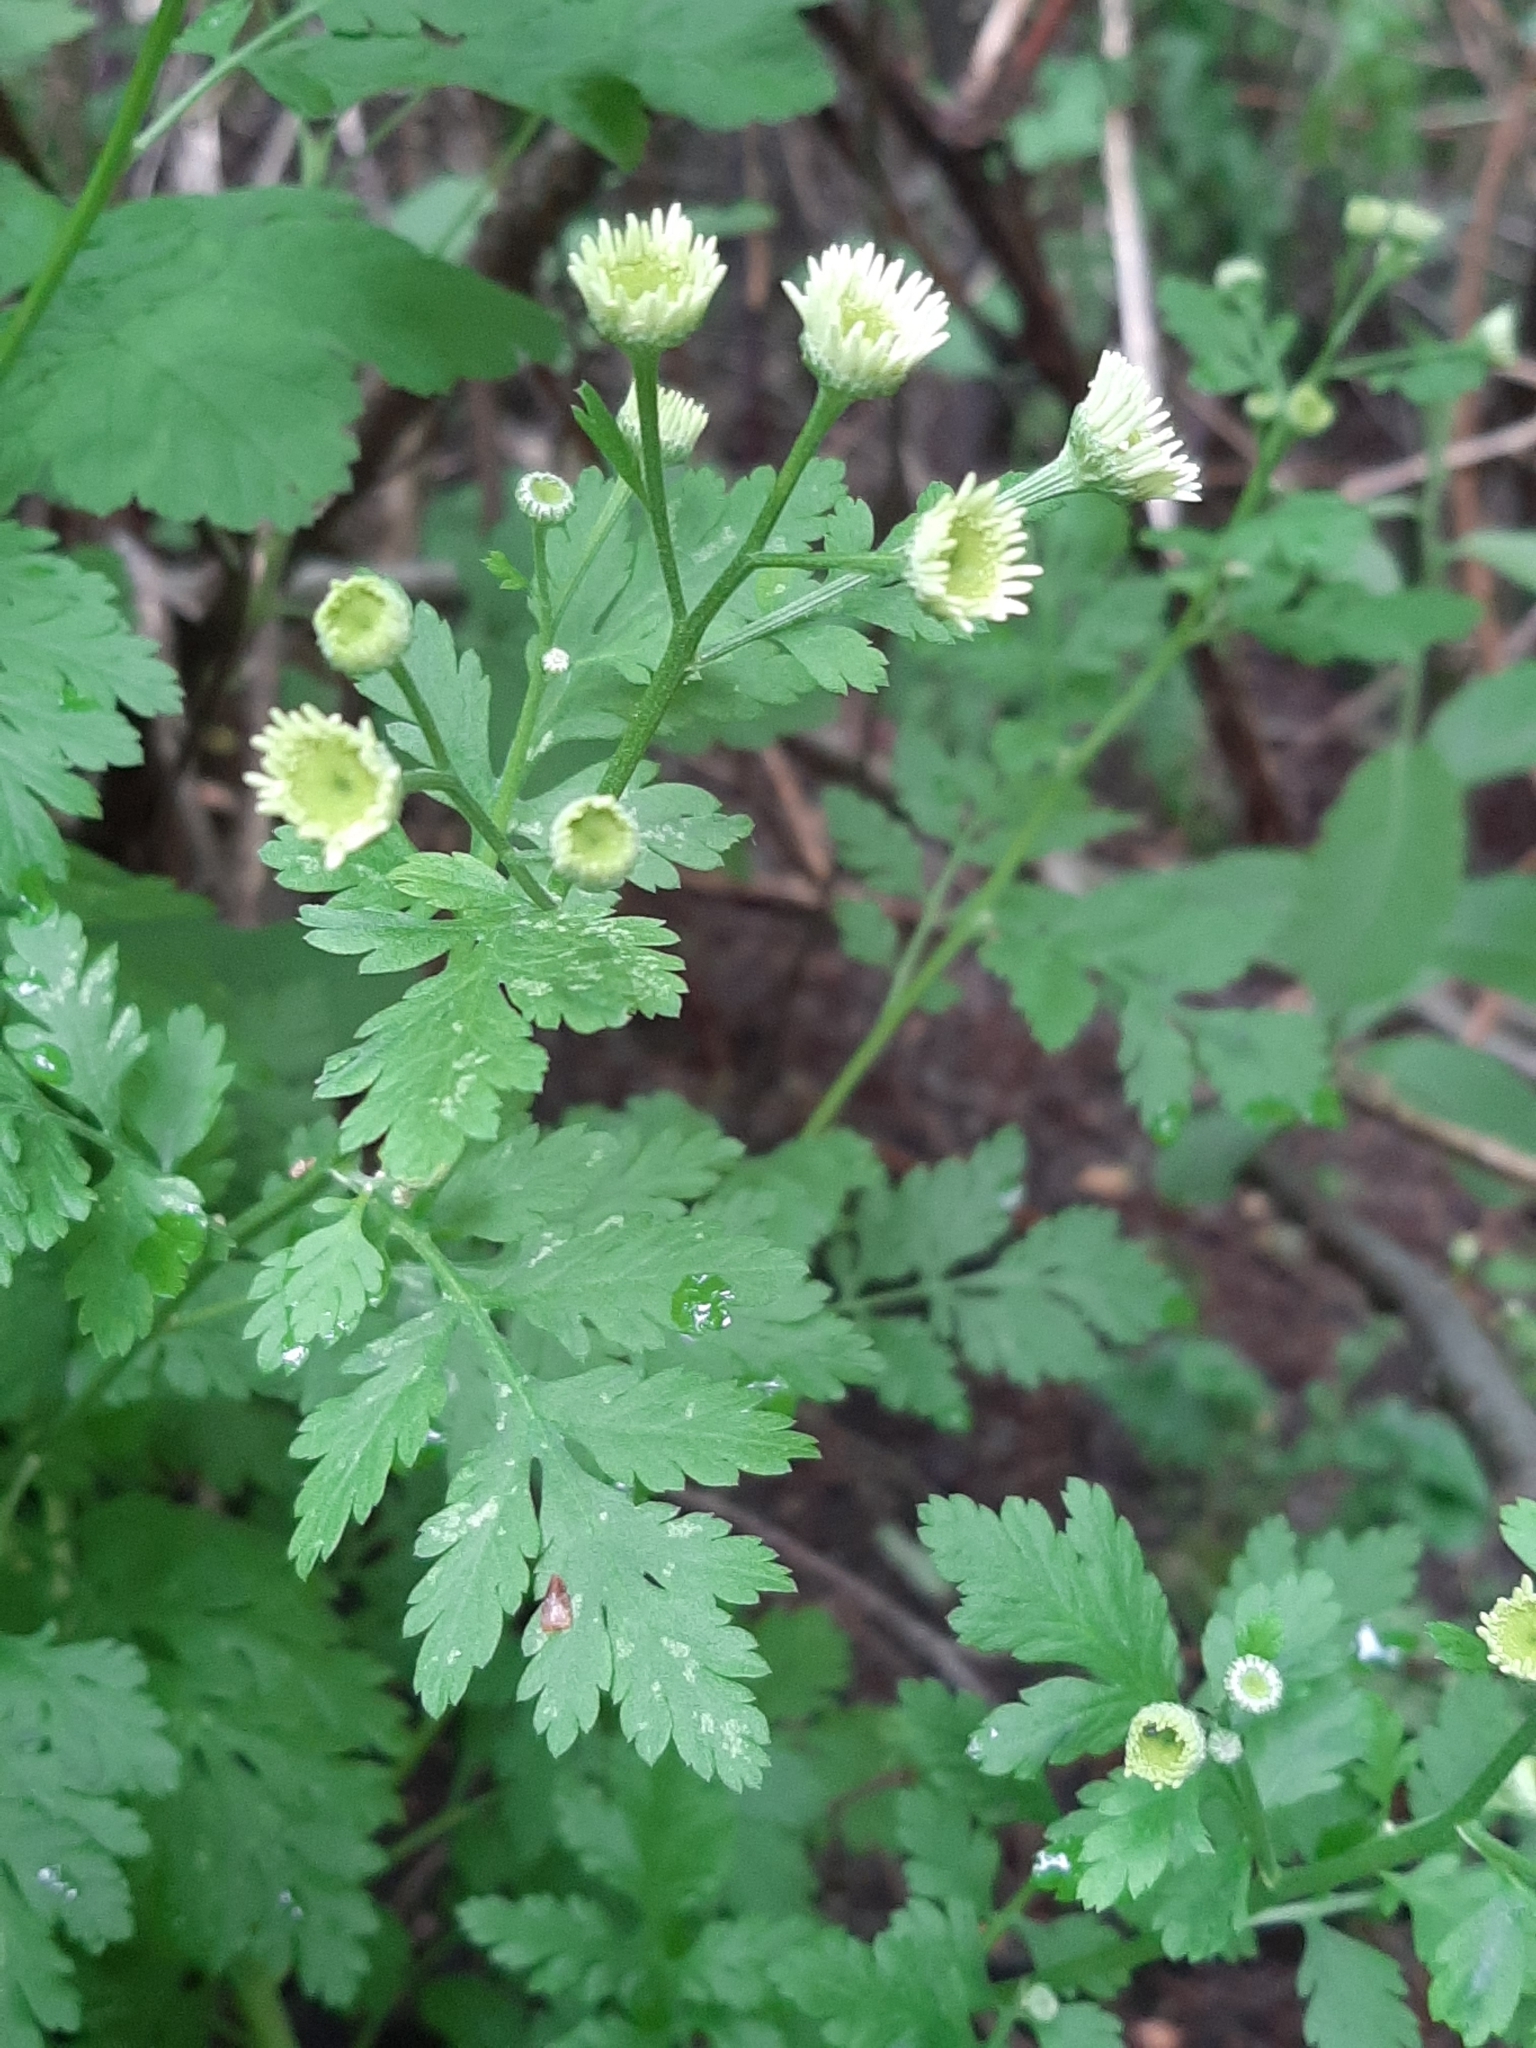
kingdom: Plantae
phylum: Tracheophyta
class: Magnoliopsida
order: Asterales
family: Asteraceae
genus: Tanacetum
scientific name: Tanacetum parthenium
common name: Feverfew
